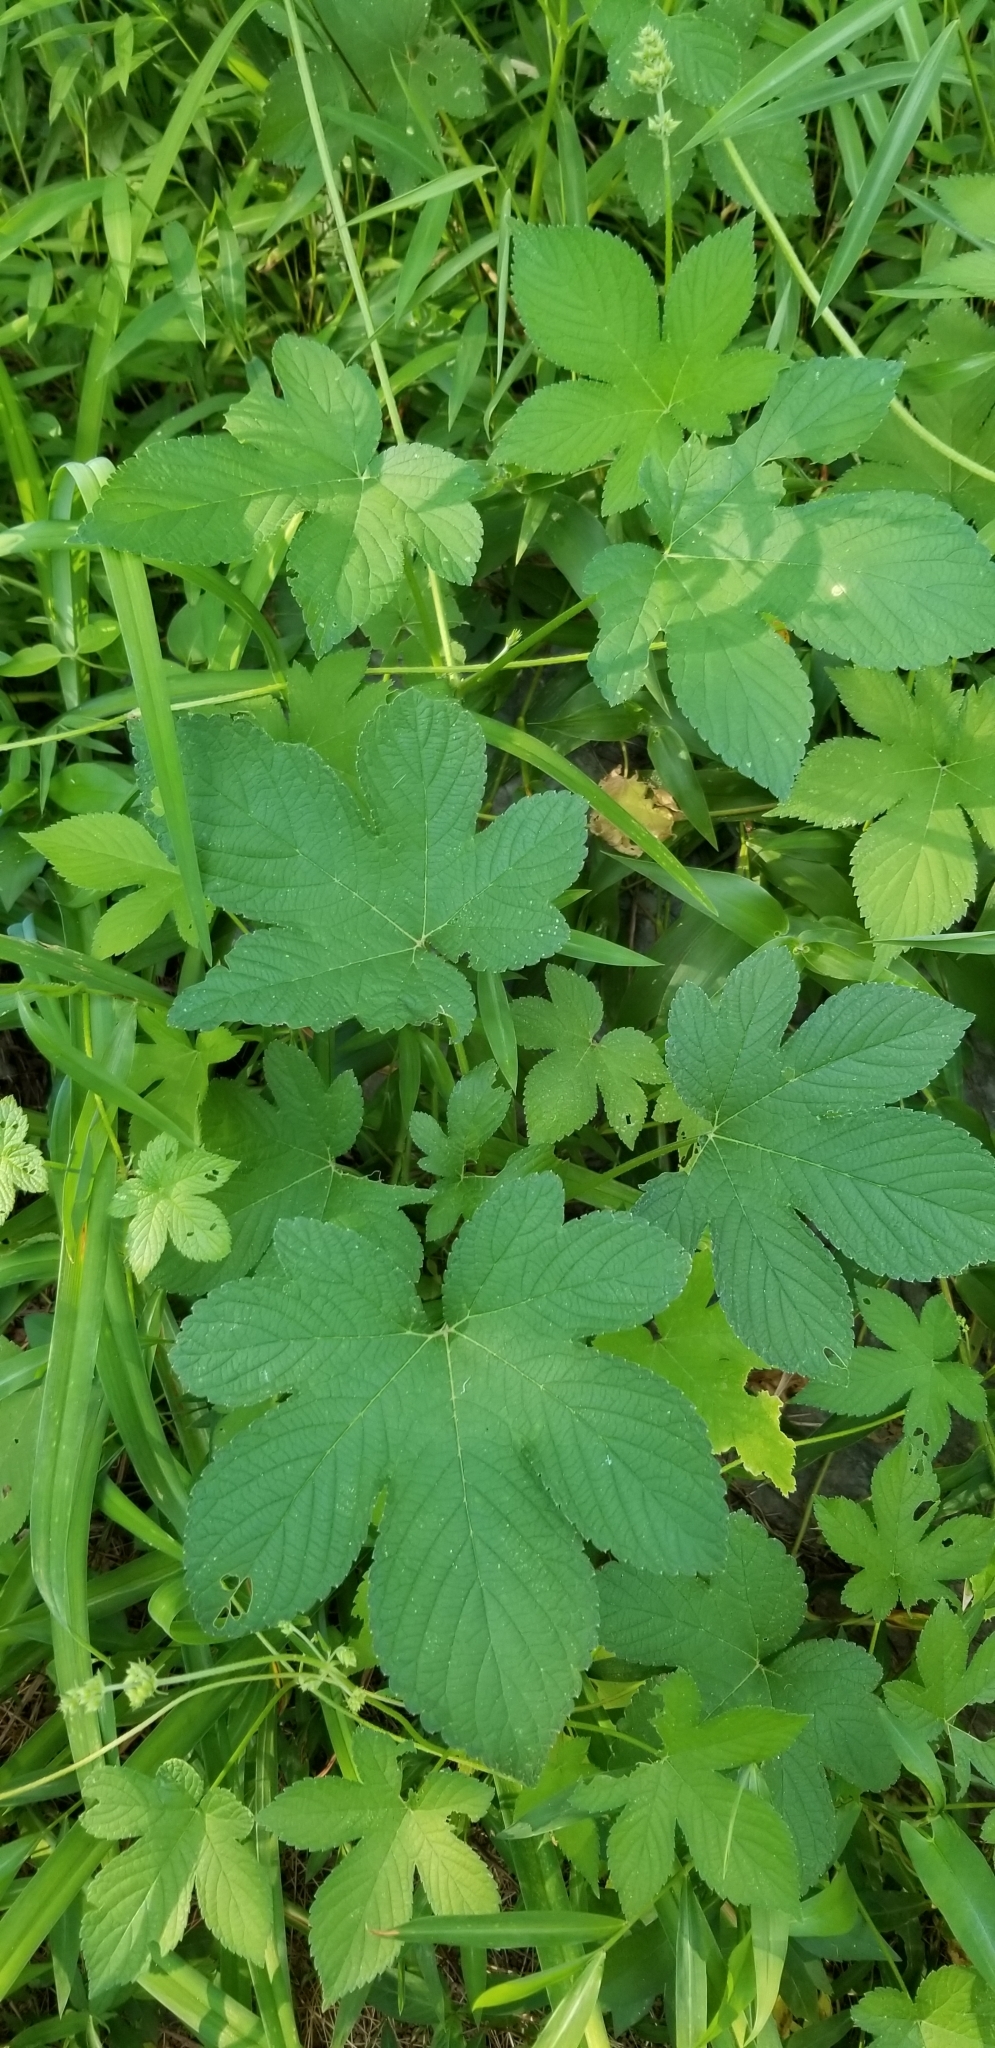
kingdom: Plantae
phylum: Tracheophyta
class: Magnoliopsida
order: Rosales
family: Cannabaceae
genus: Humulus
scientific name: Humulus scandens
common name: Japanese hop
